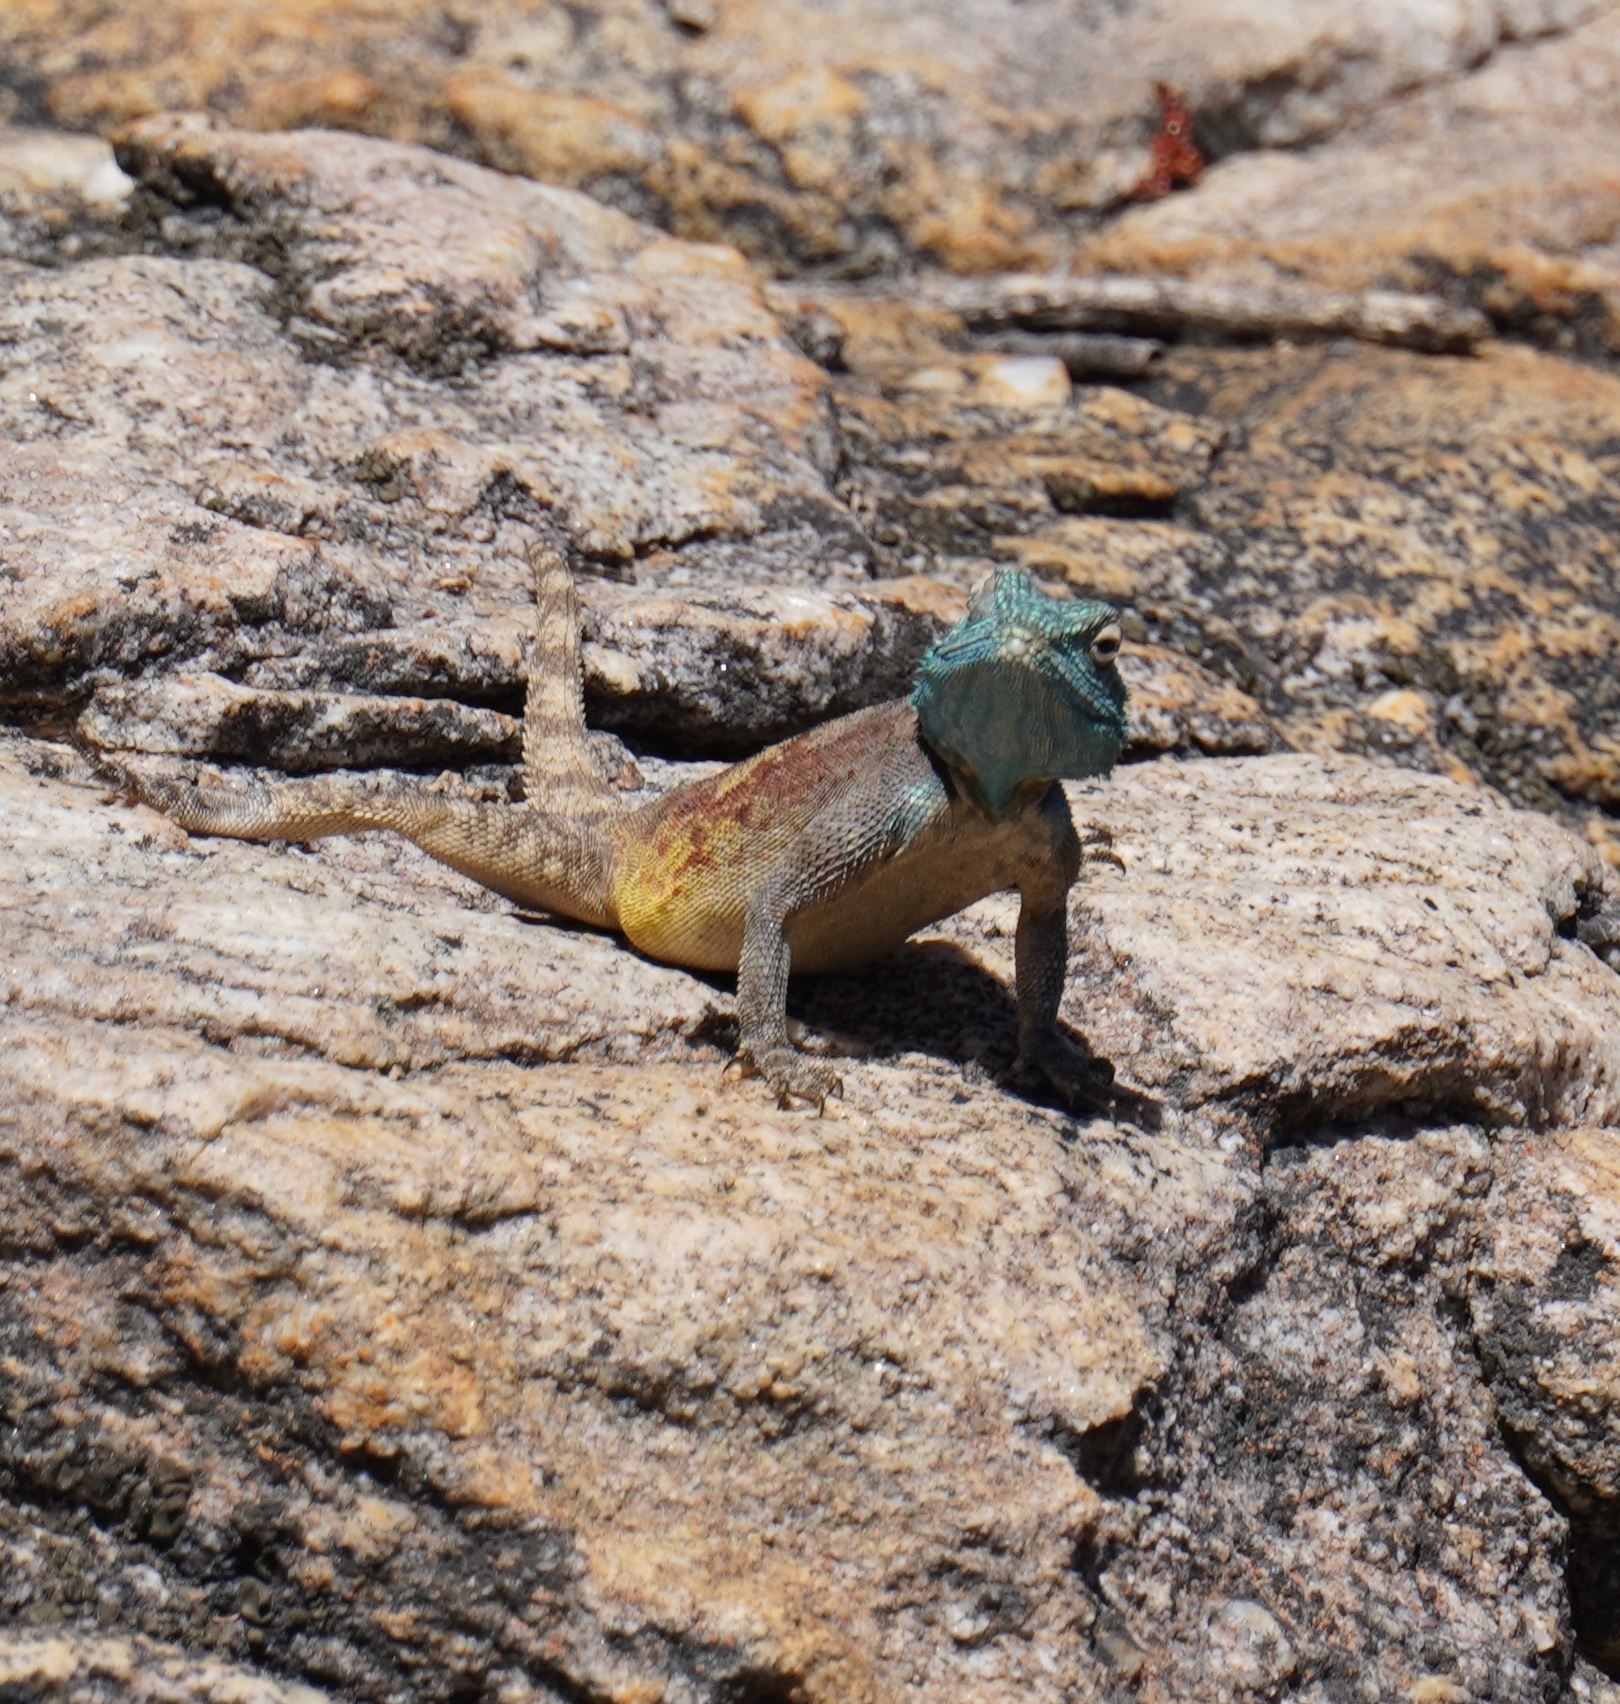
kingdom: Animalia
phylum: Chordata
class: Squamata
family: Agamidae
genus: Agama
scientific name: Agama atra
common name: Southern african rock agama
